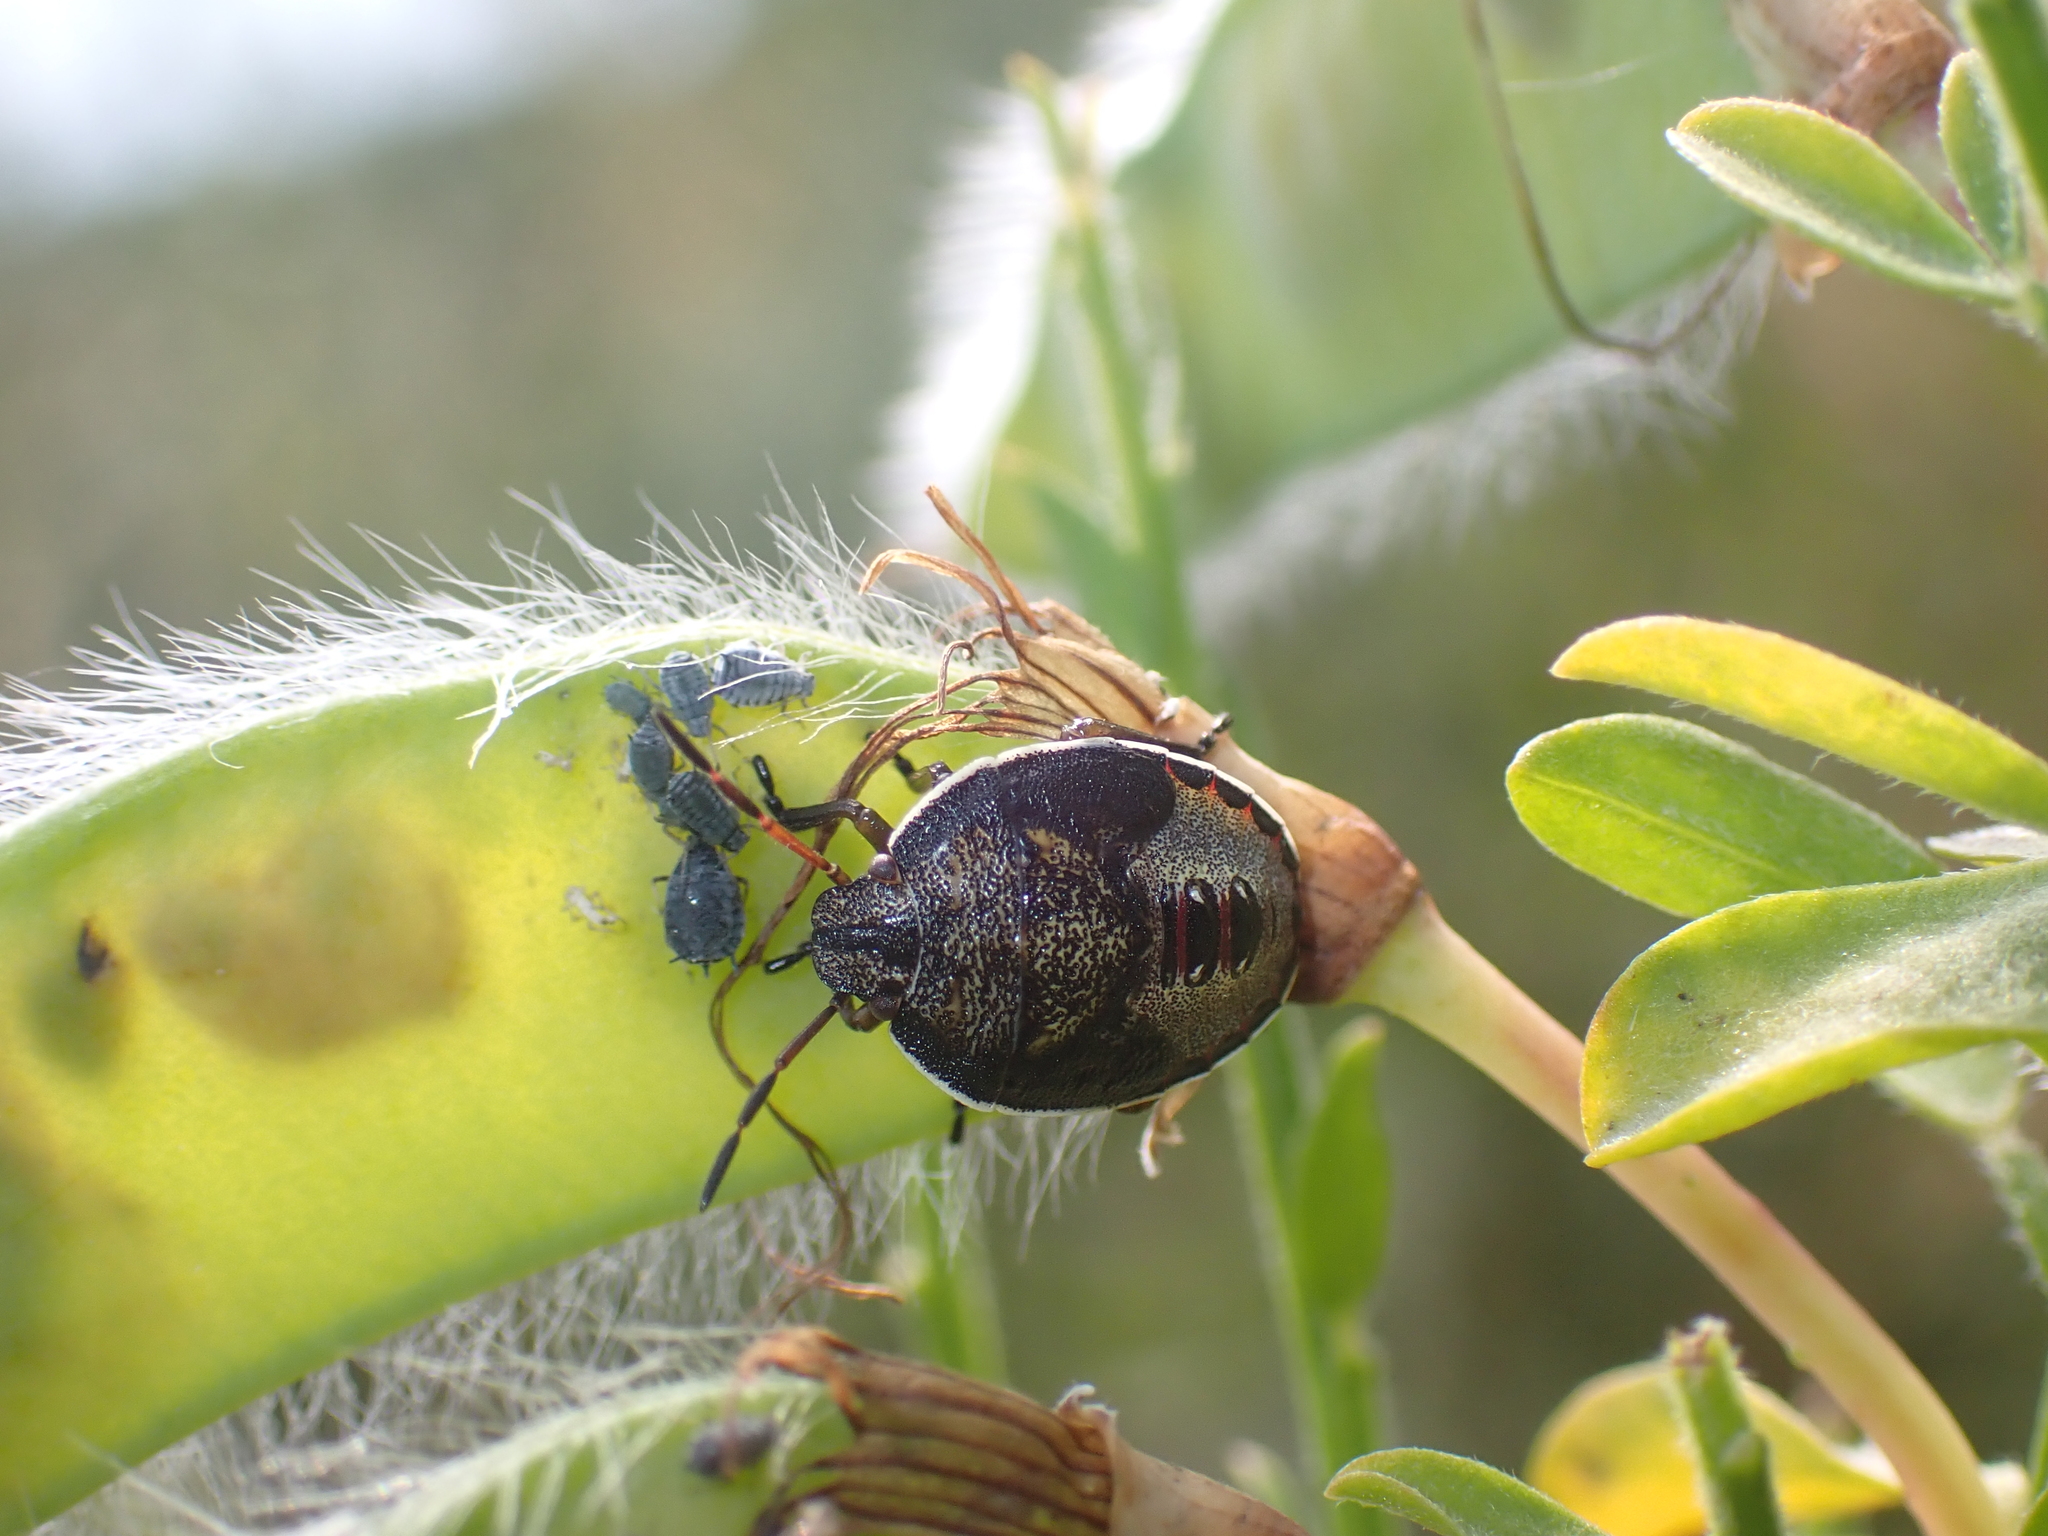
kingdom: Animalia
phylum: Arthropoda
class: Insecta
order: Hemiptera
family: Pentatomidae
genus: Piezodorus
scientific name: Piezodorus lituratus
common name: Stink bug
